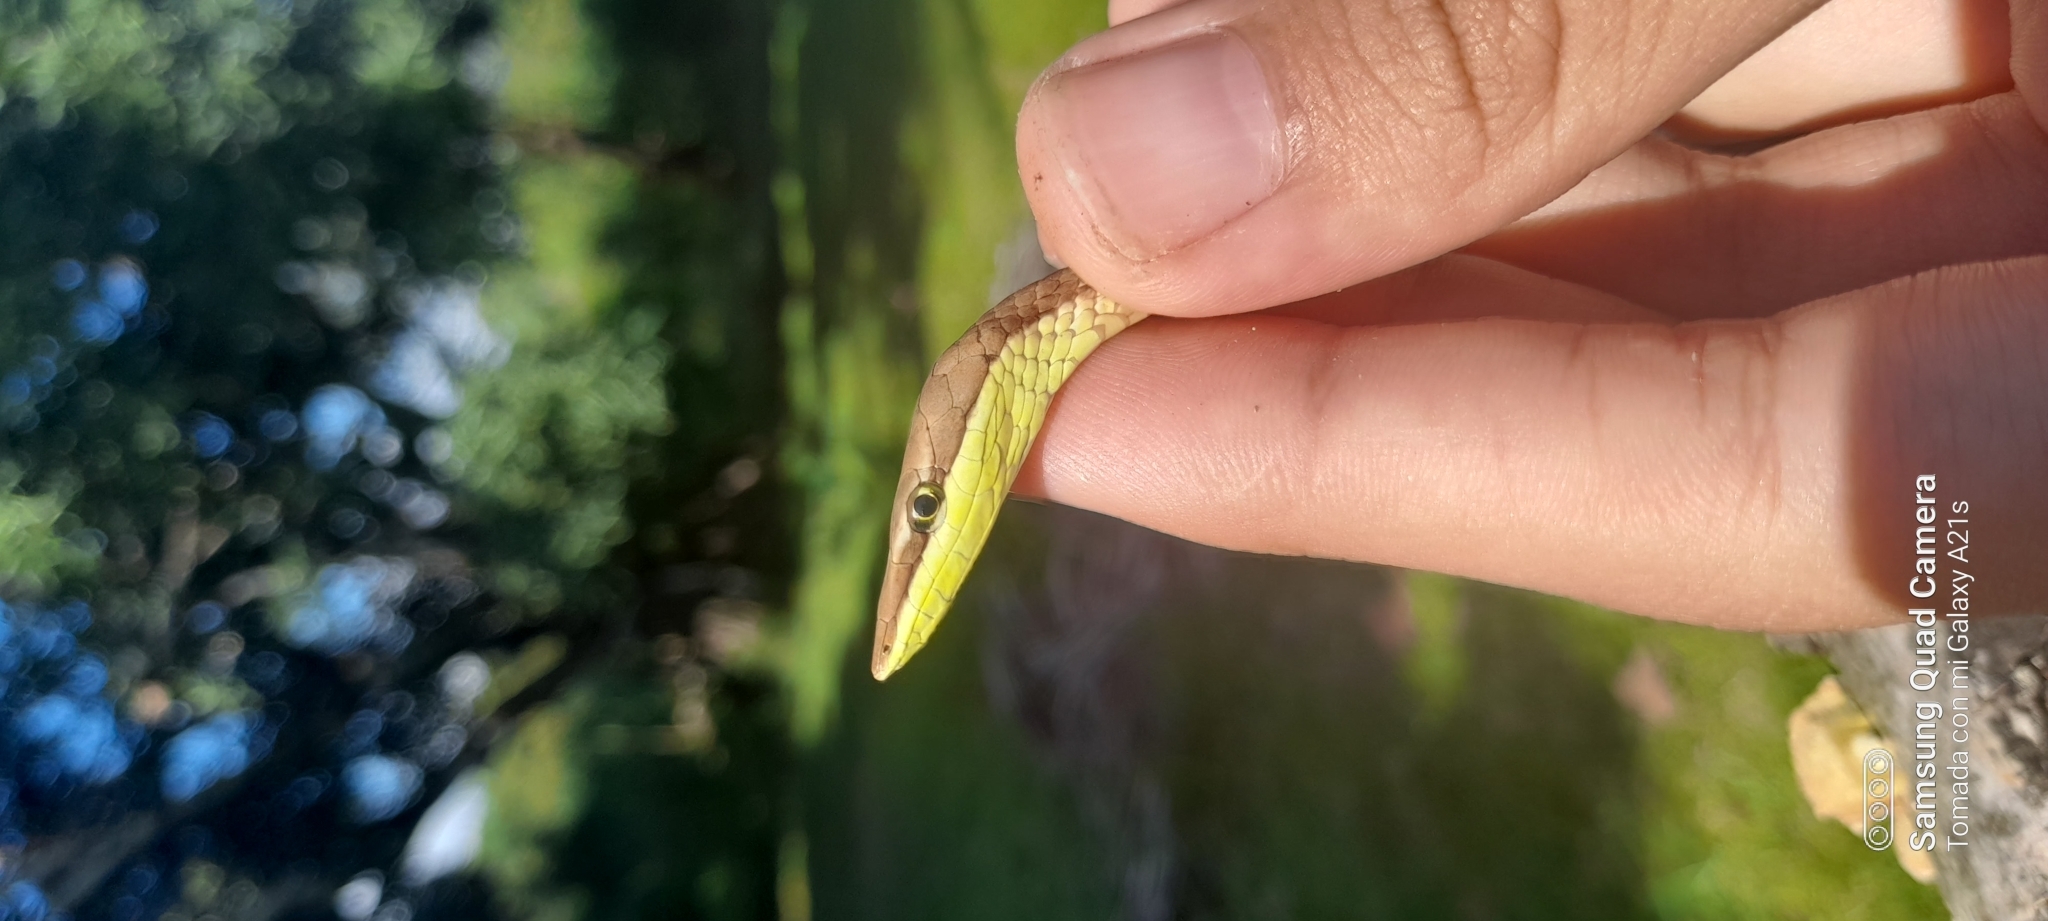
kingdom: Animalia
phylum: Chordata
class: Squamata
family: Colubridae
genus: Oxybelis
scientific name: Oxybelis vittatus
